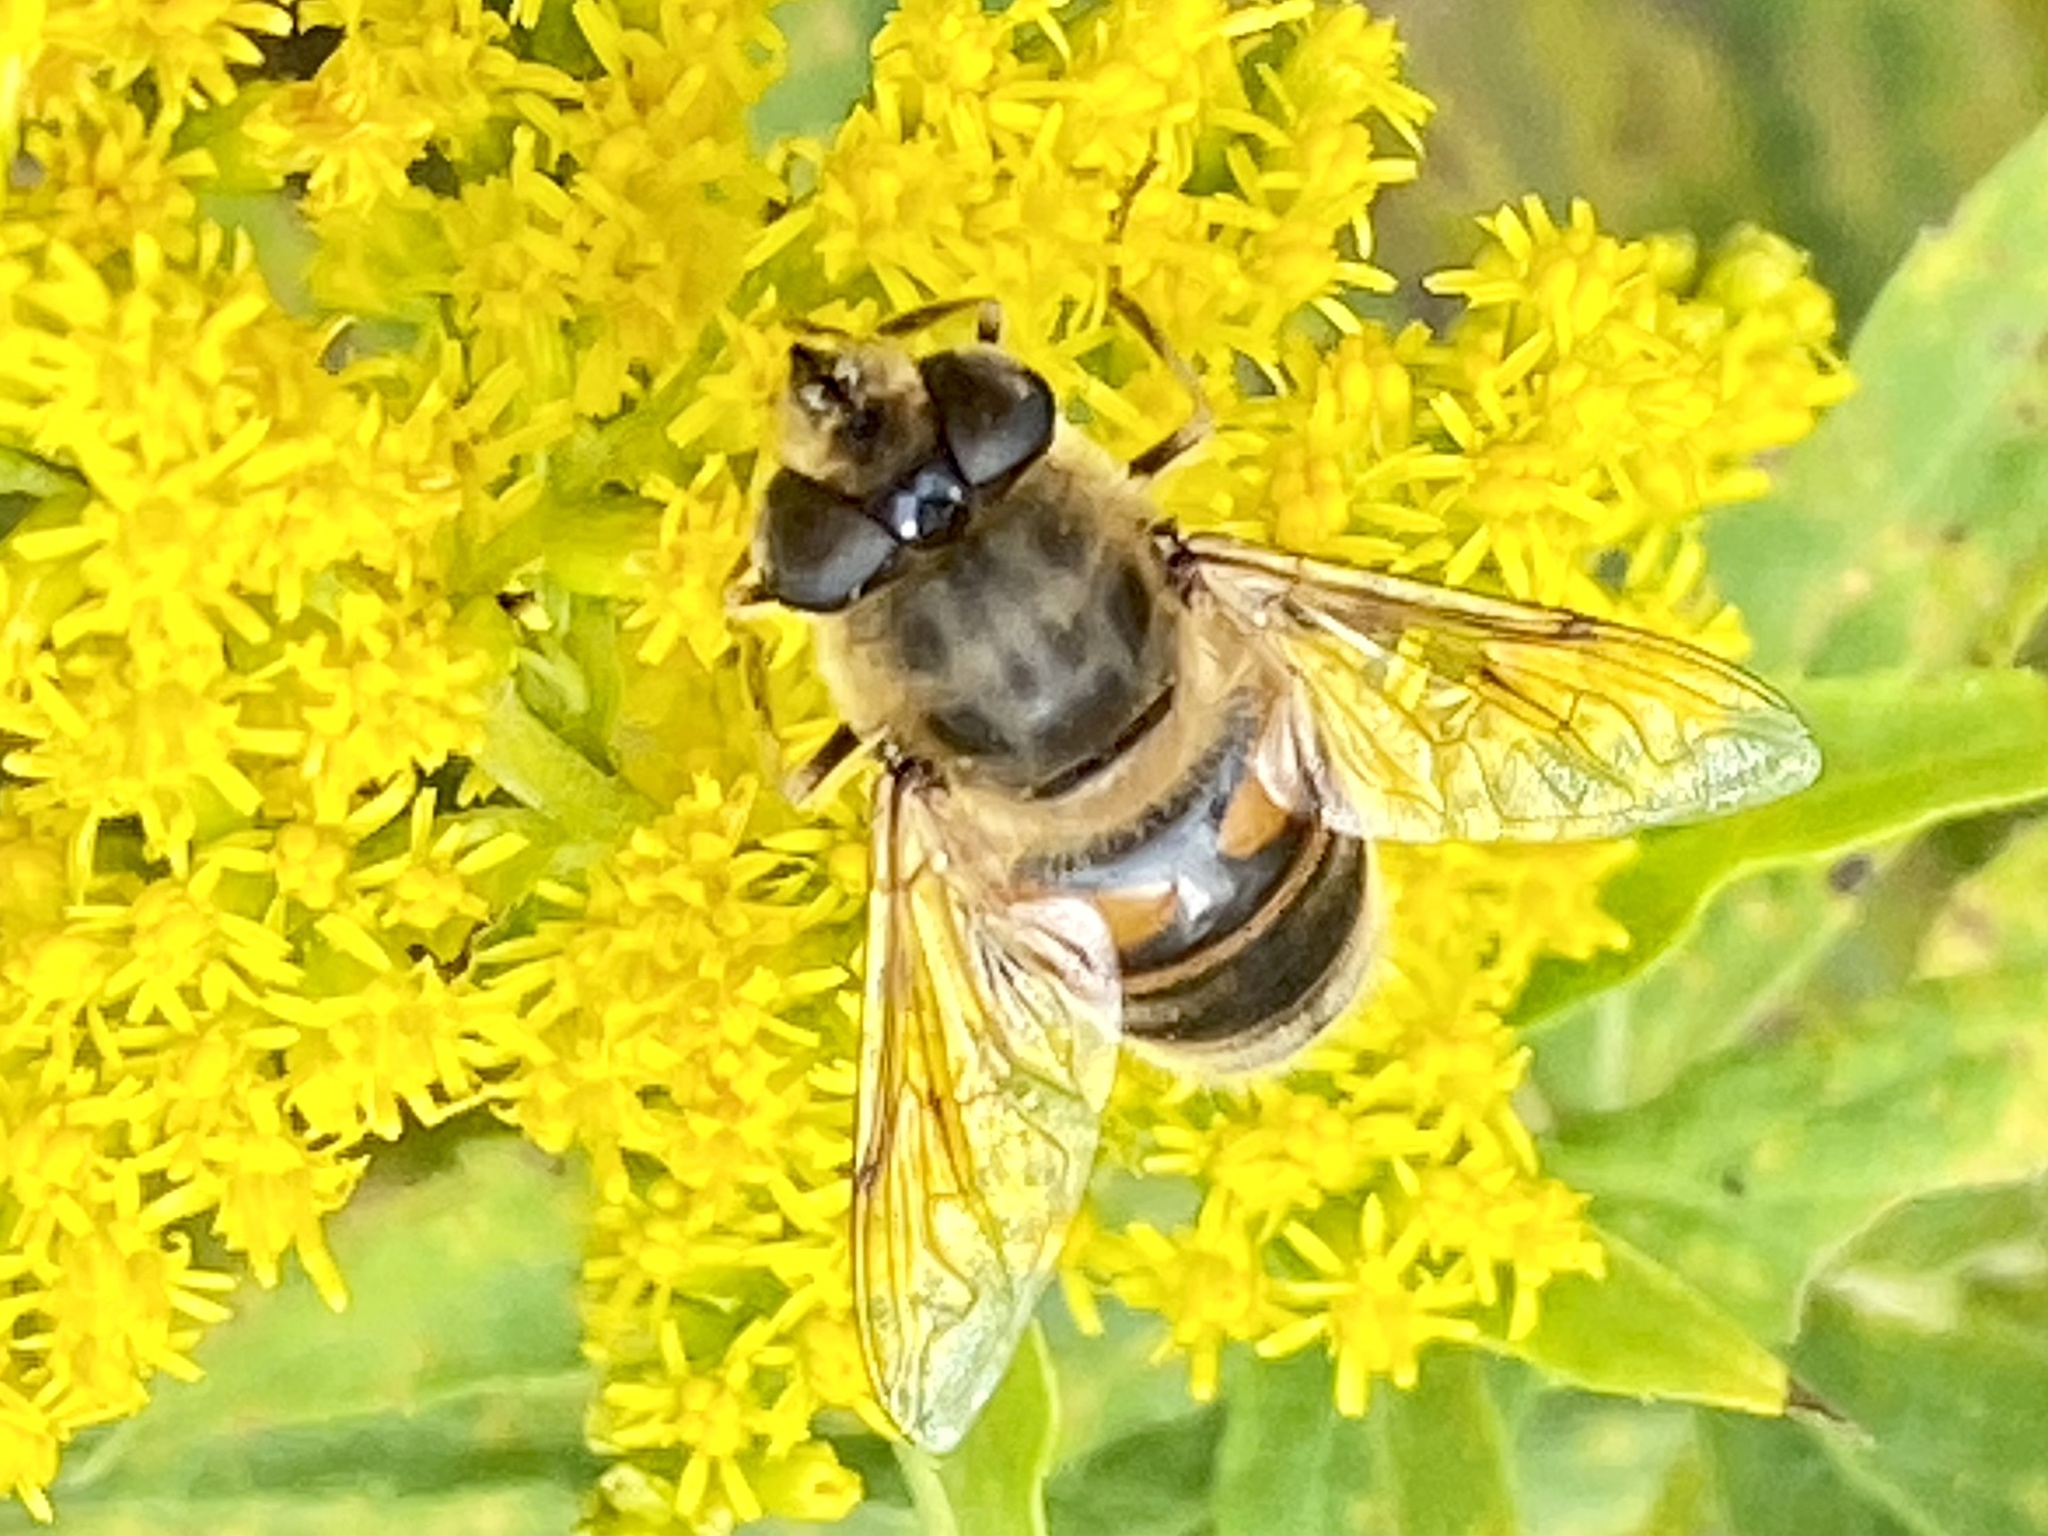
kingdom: Animalia
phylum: Arthropoda
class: Insecta
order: Diptera
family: Syrphidae
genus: Eristalis
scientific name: Eristalis tenax
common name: Drone fly
